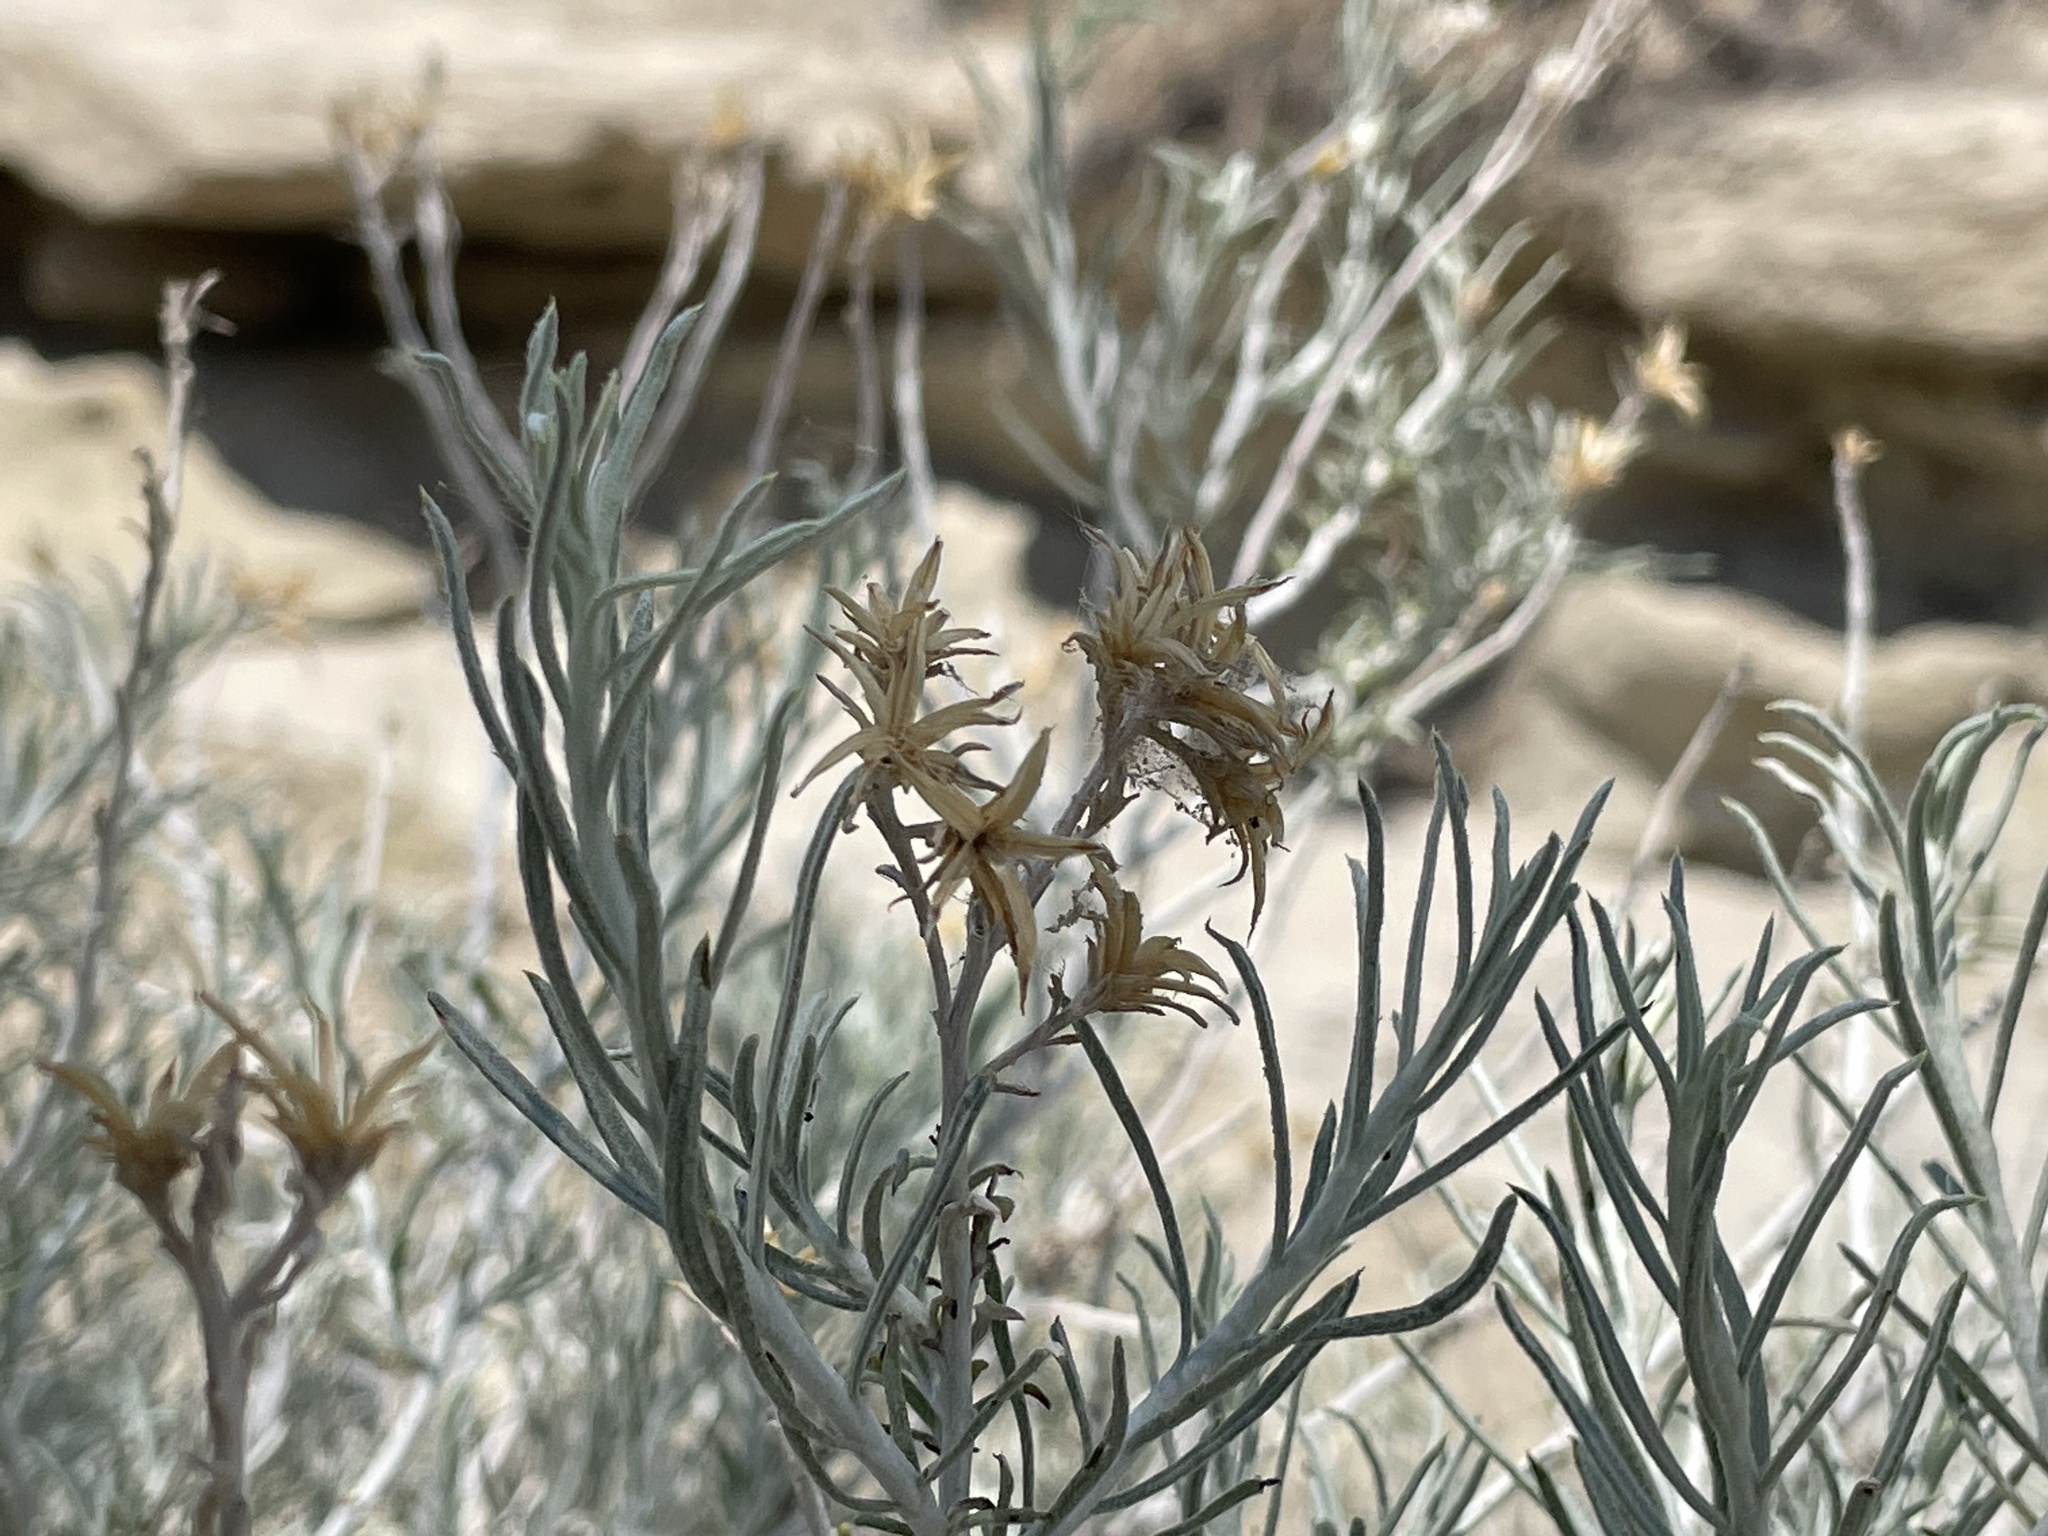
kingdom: Plantae
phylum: Tracheophyta
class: Magnoliopsida
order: Asterales
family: Asteraceae
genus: Ericameria
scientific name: Ericameria nauseosa
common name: Rubber rabbitbrush
